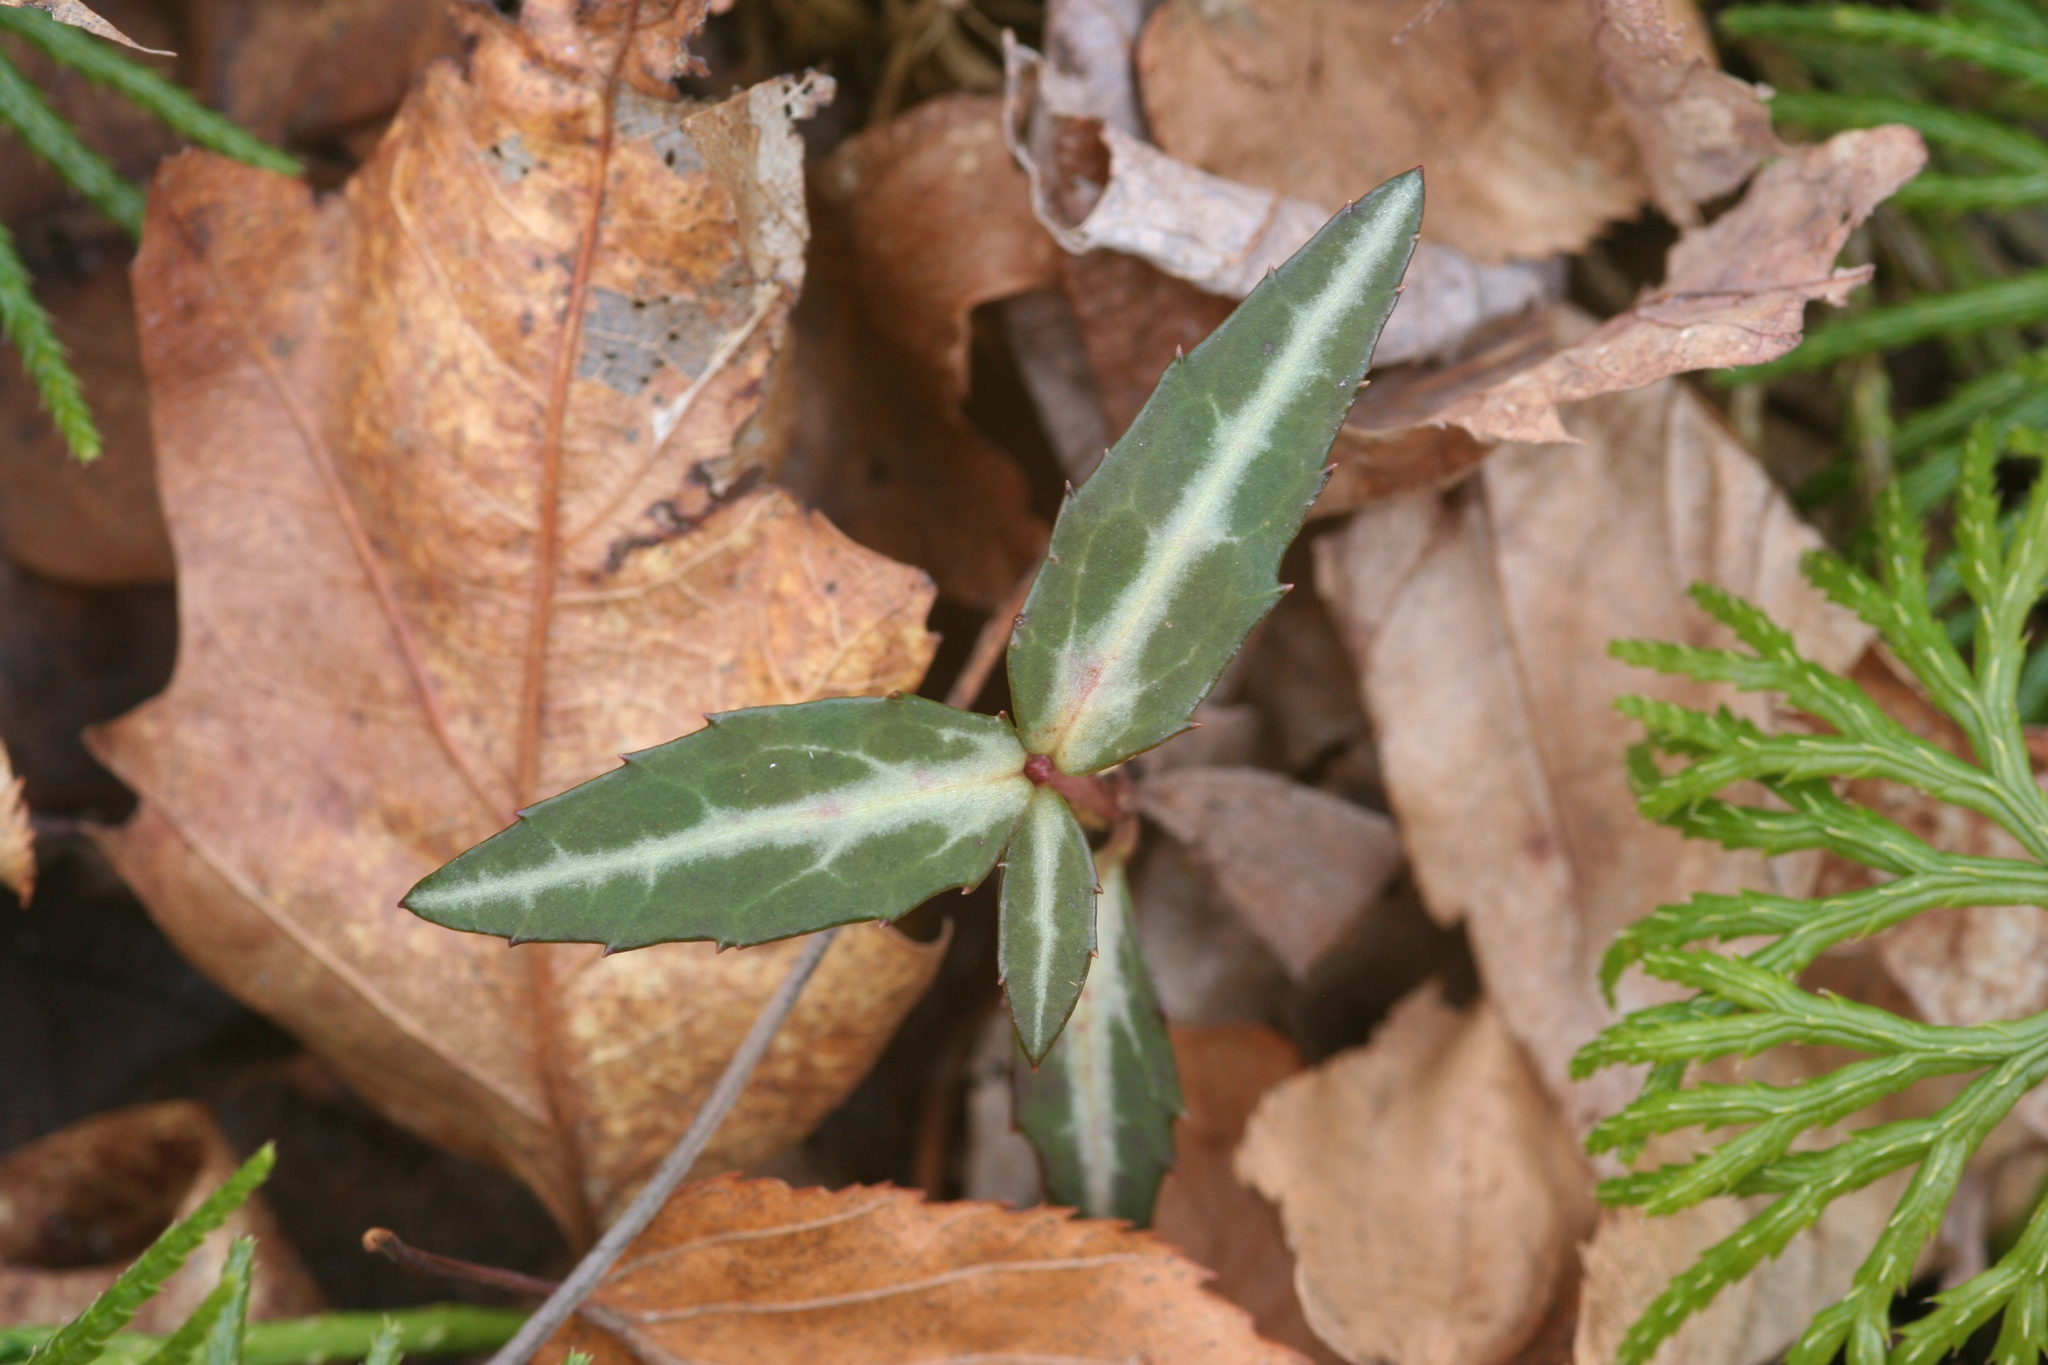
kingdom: Plantae
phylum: Tracheophyta
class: Magnoliopsida
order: Ericales
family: Ericaceae
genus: Chimaphila
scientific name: Chimaphila maculata
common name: Spotted pipsissewa
